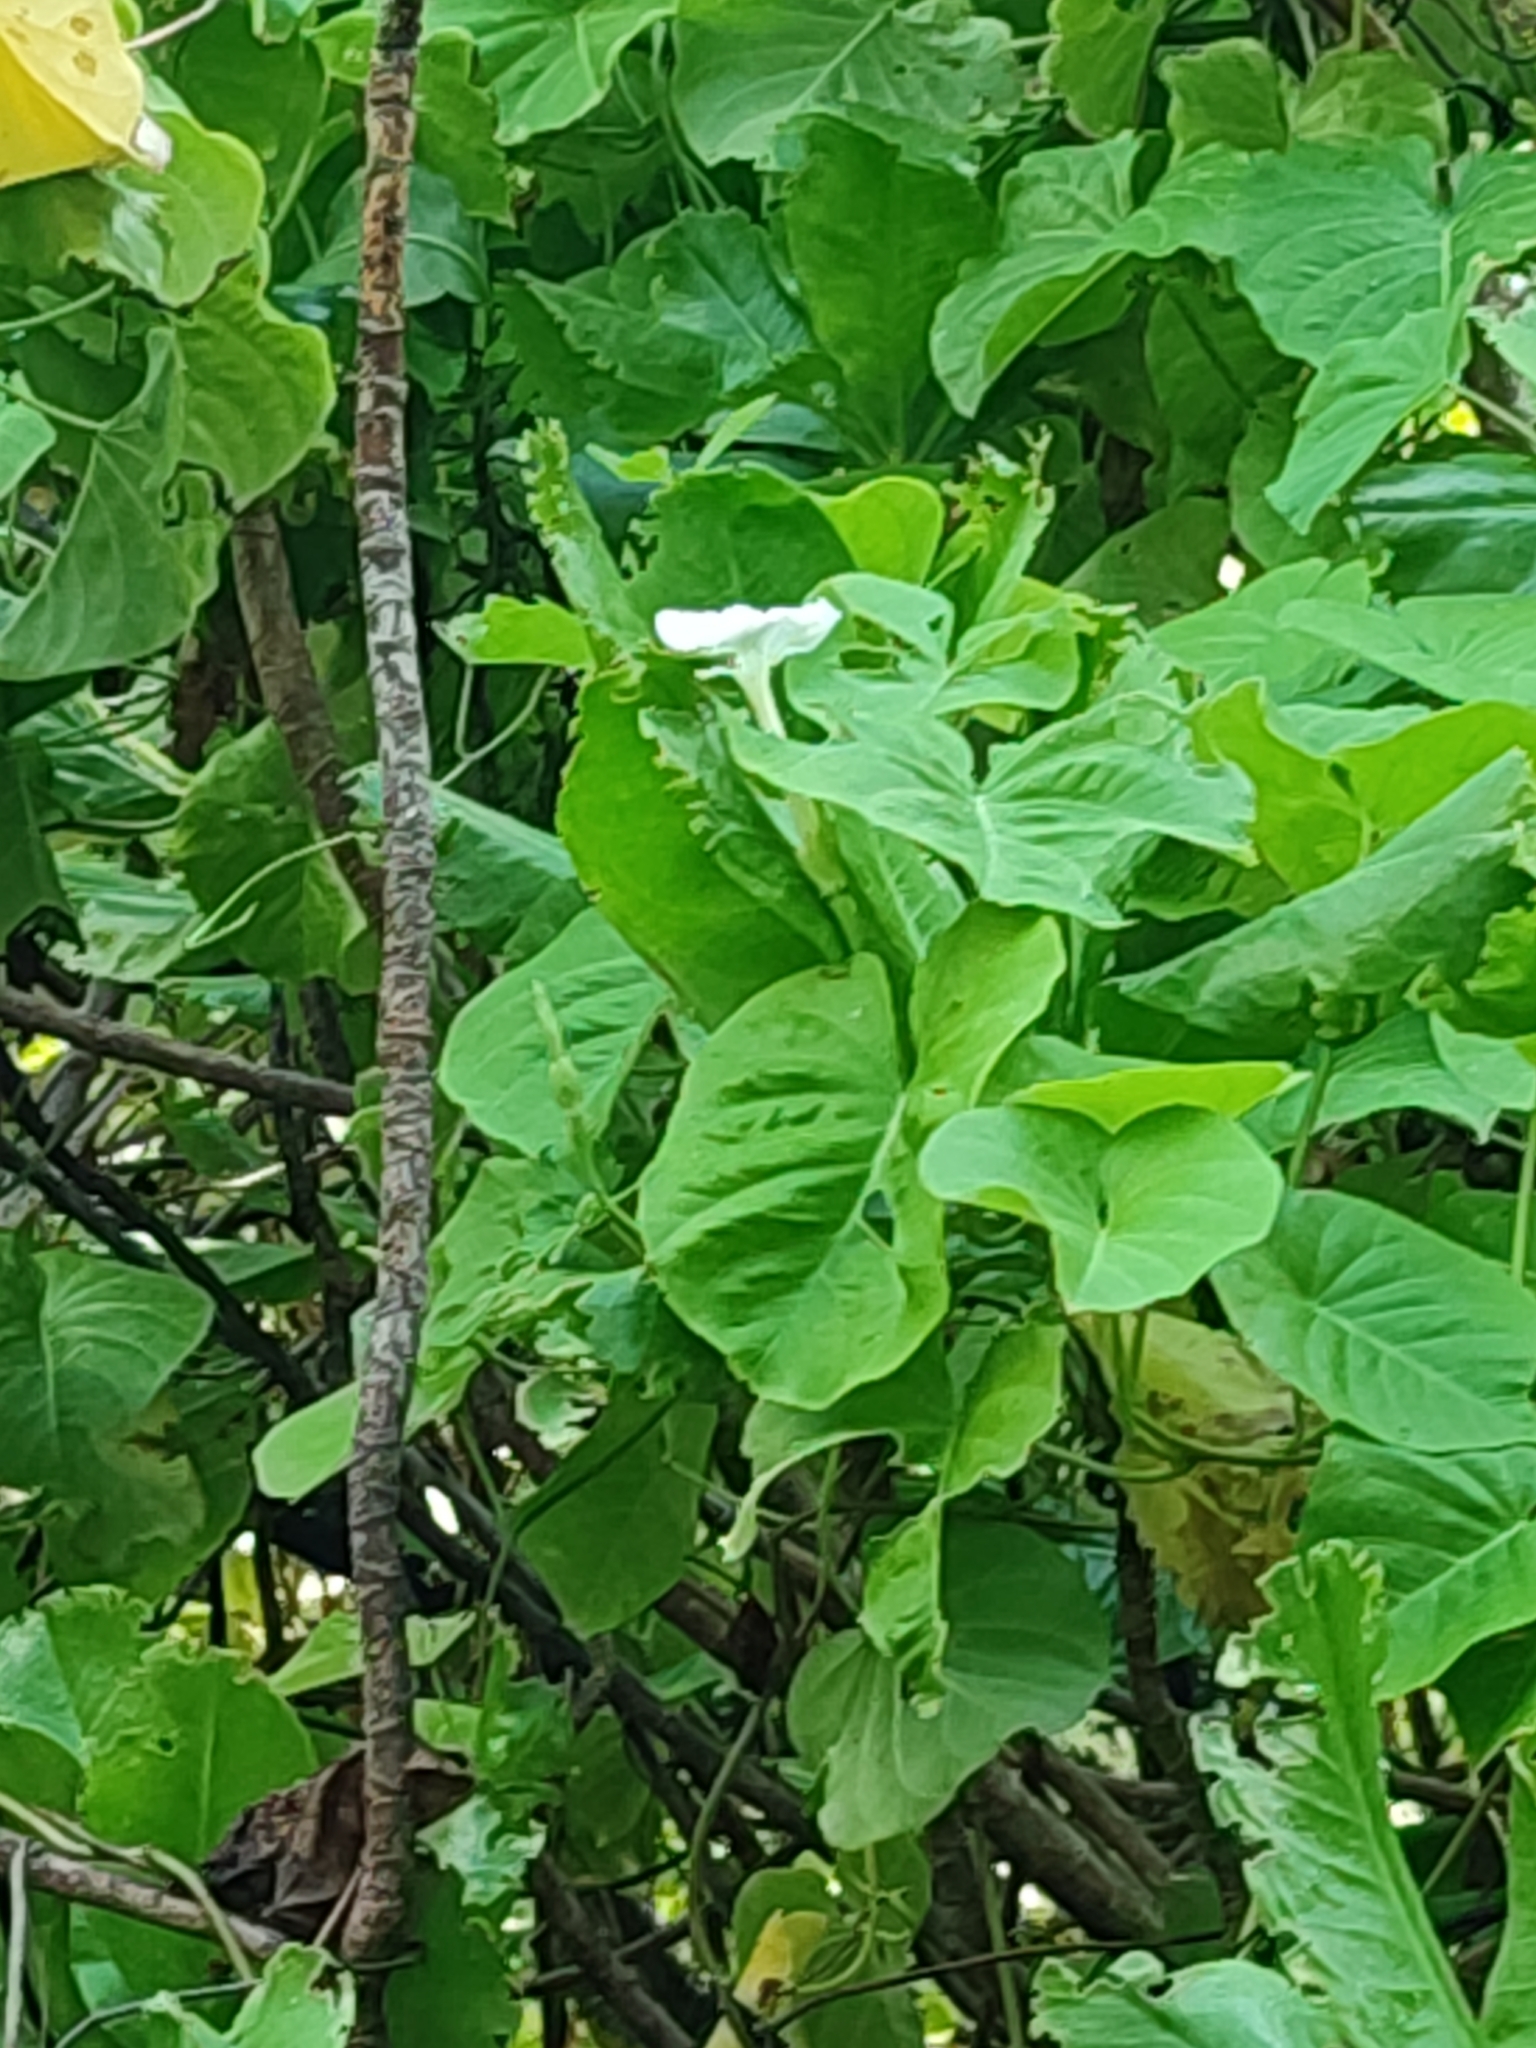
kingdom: Plantae
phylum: Tracheophyta
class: Magnoliopsida
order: Solanales
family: Convolvulaceae
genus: Ipomoea
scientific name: Ipomoea violacea
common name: Beach moonflower
